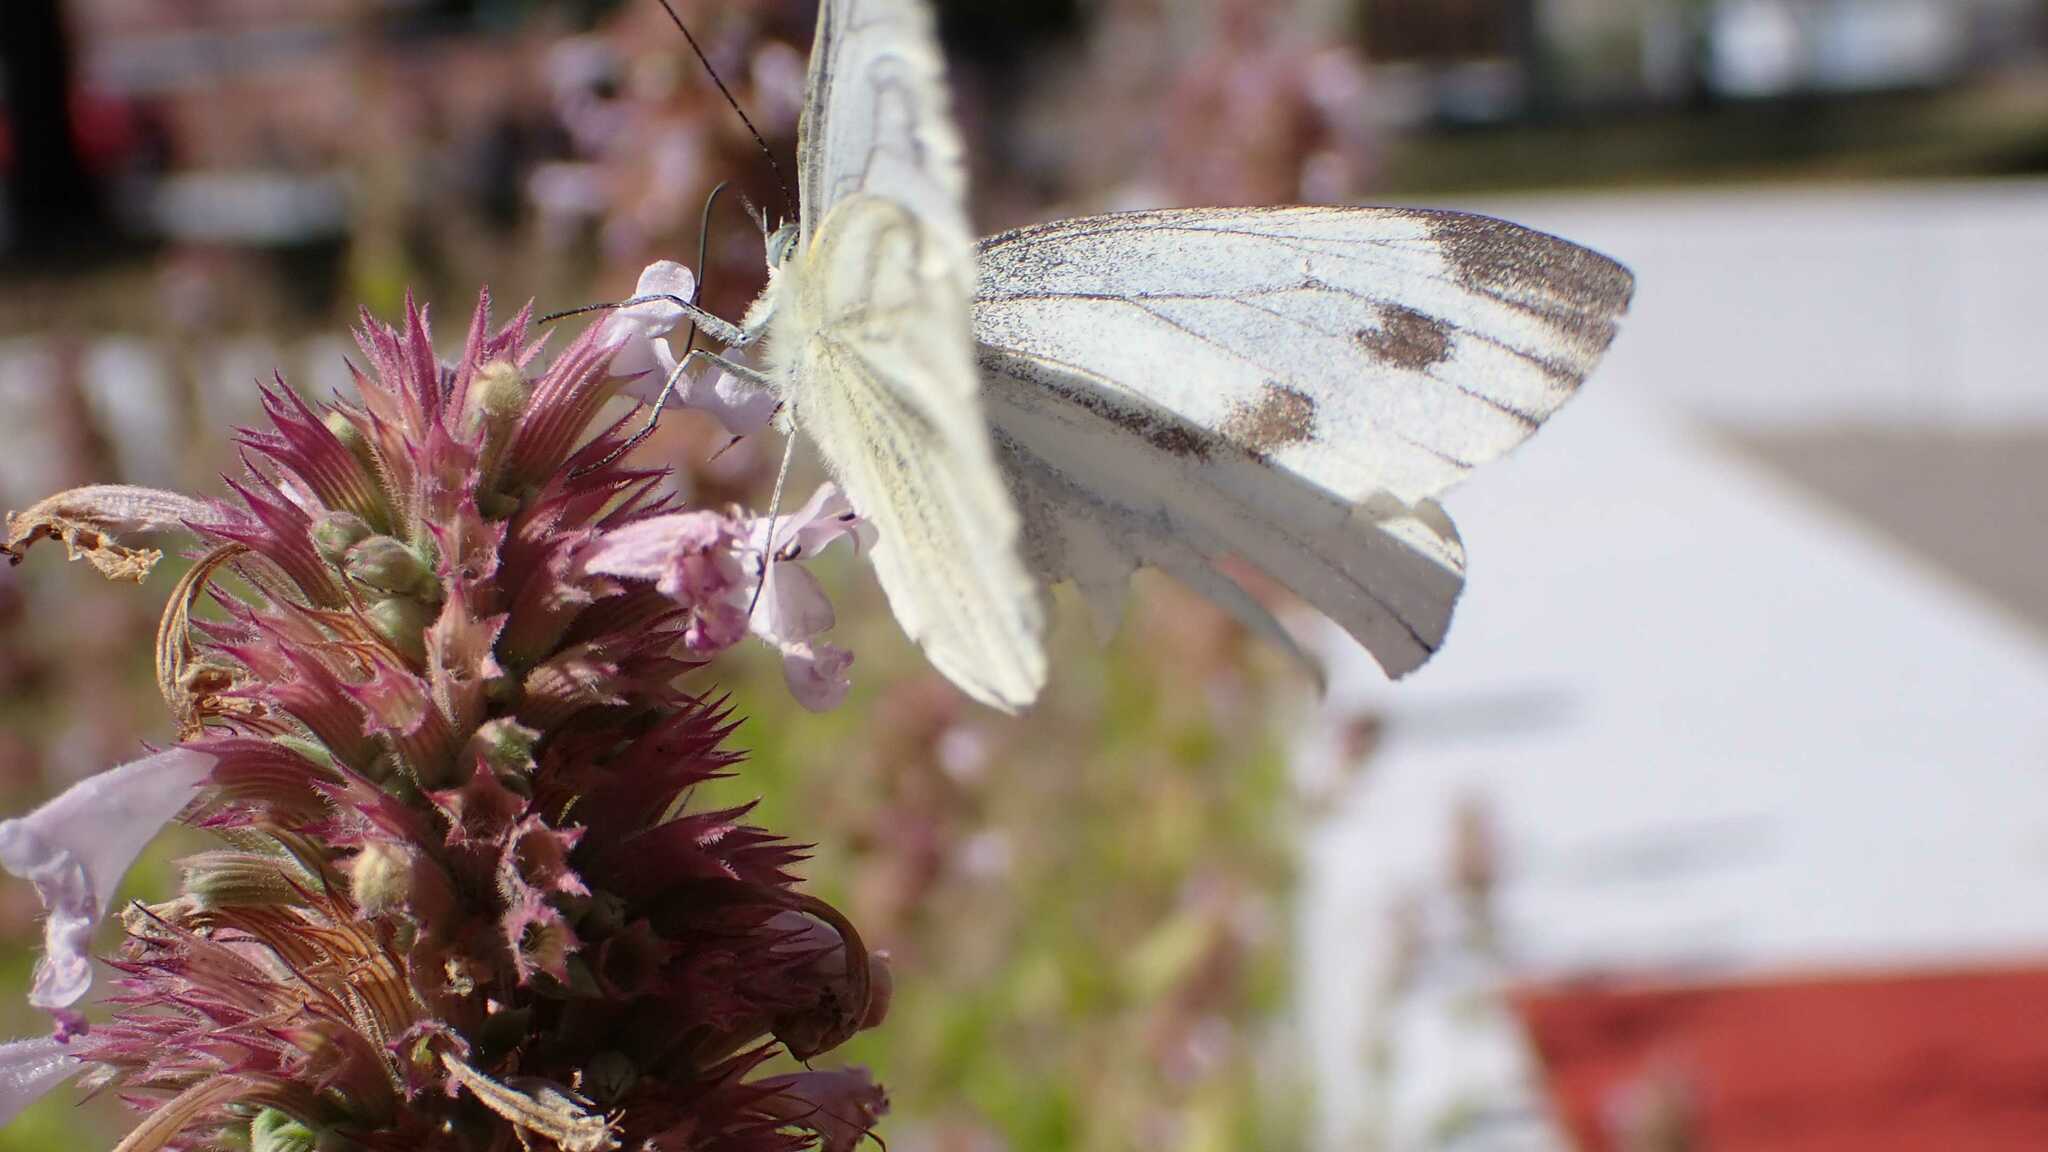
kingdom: Animalia
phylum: Arthropoda
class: Insecta
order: Lepidoptera
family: Pieridae
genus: Pieris
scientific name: Pieris napi
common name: Green-veined white
